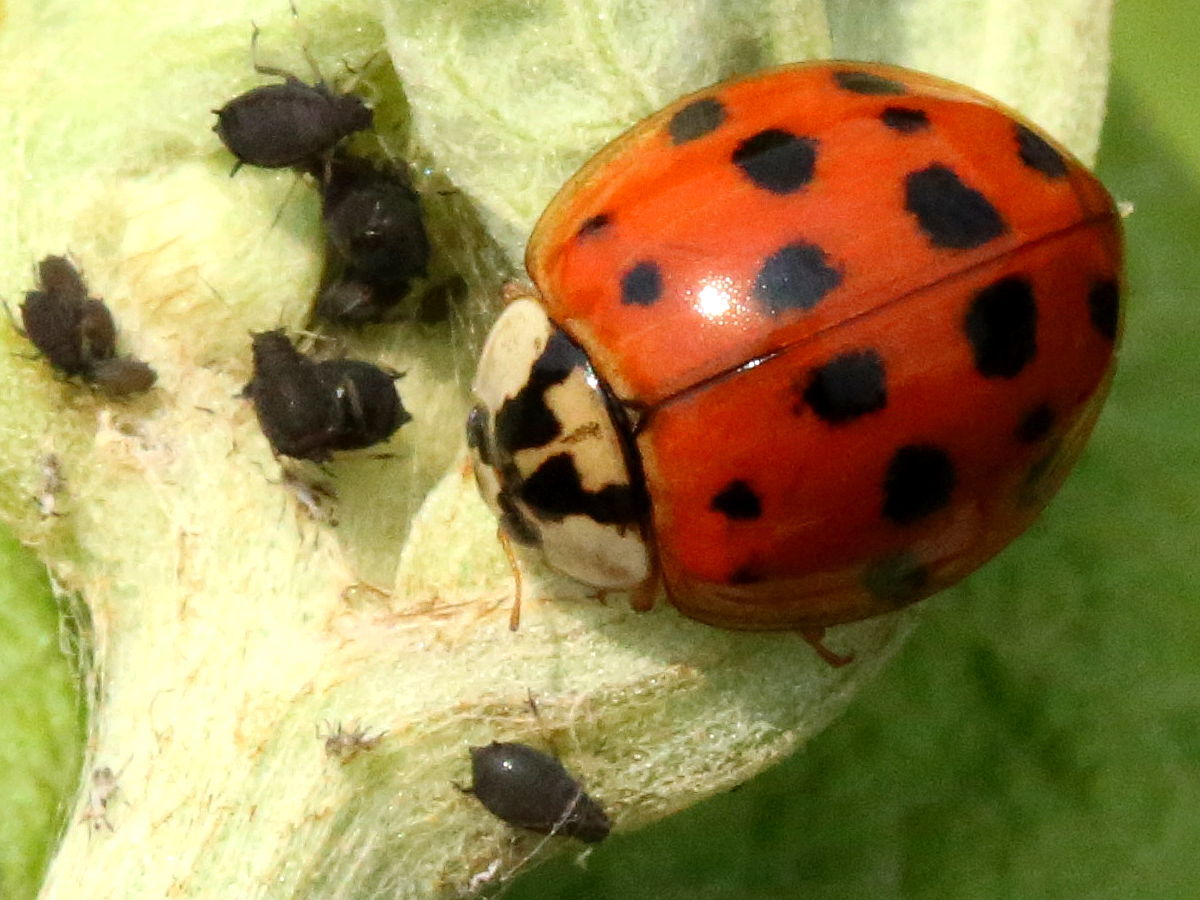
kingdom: Animalia
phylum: Arthropoda
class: Insecta
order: Coleoptera
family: Coccinellidae
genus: Harmonia
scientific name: Harmonia axyridis
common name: Harlequin ladybird
